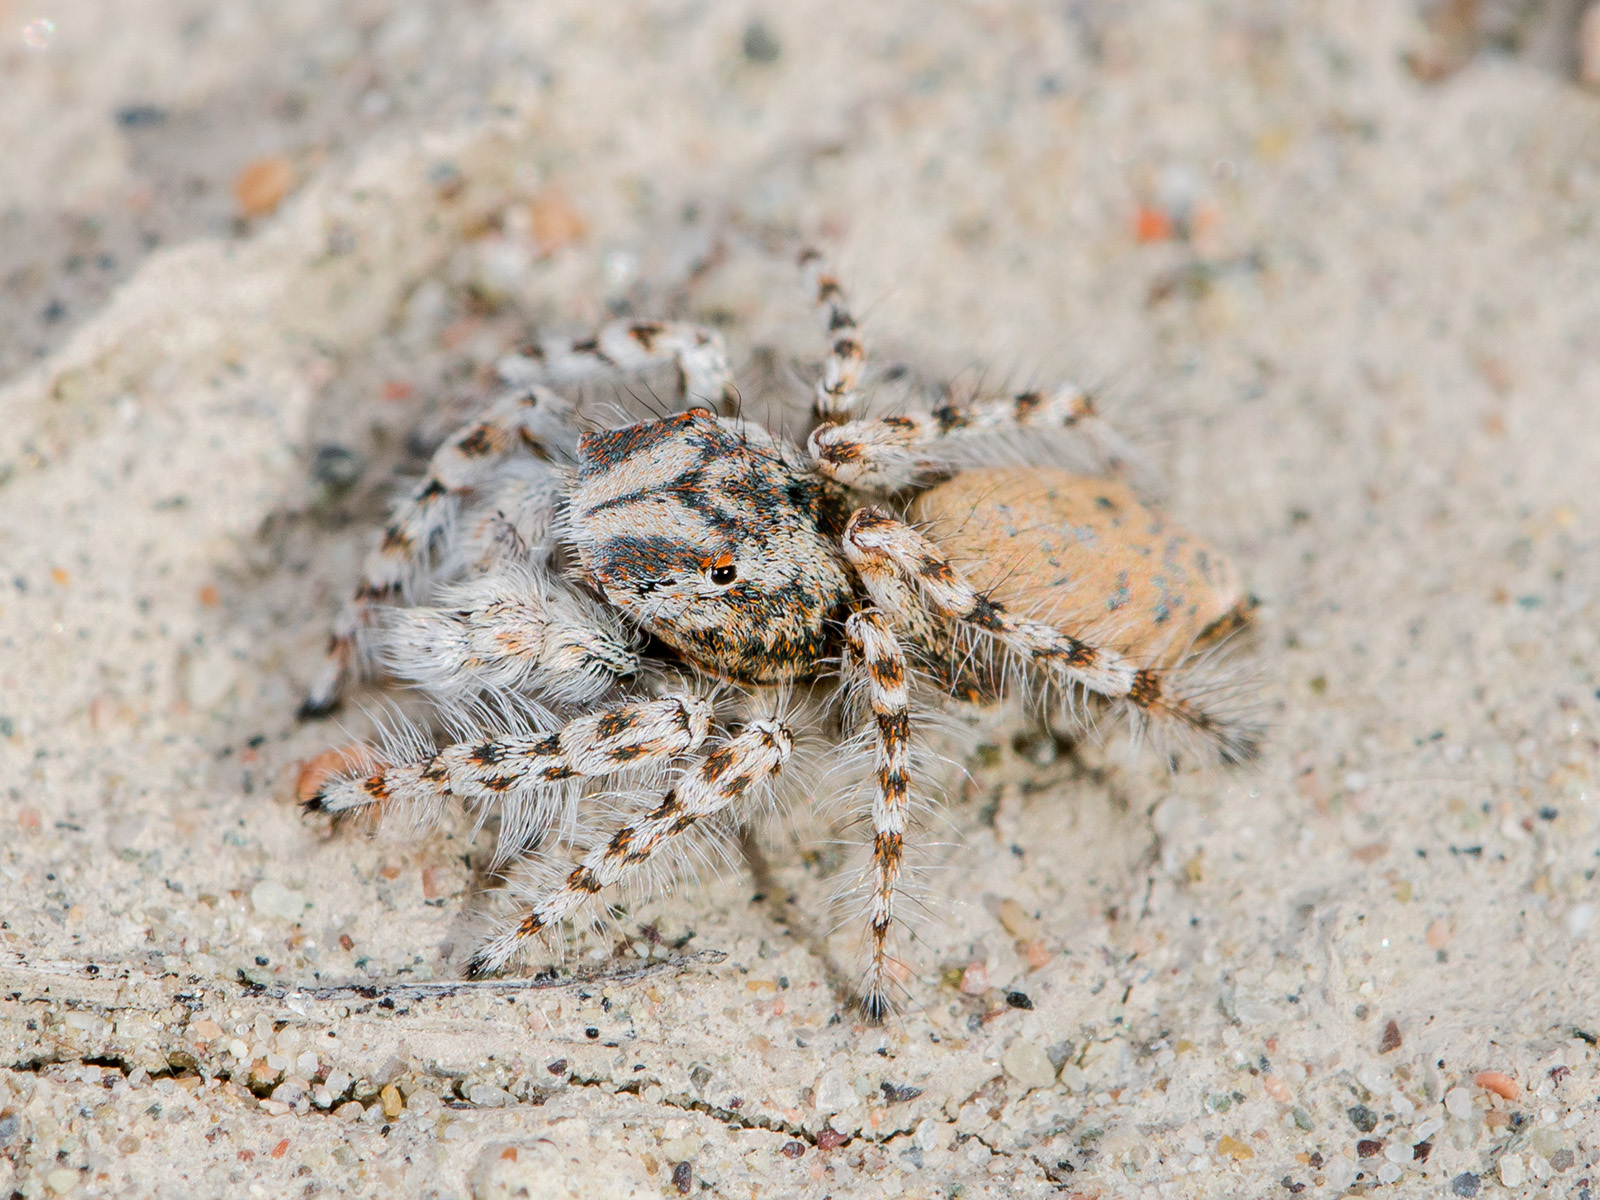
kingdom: Animalia
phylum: Arthropoda
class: Arachnida
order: Araneae
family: Salticidae
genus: Yllenus
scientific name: Yllenus uiguricus
